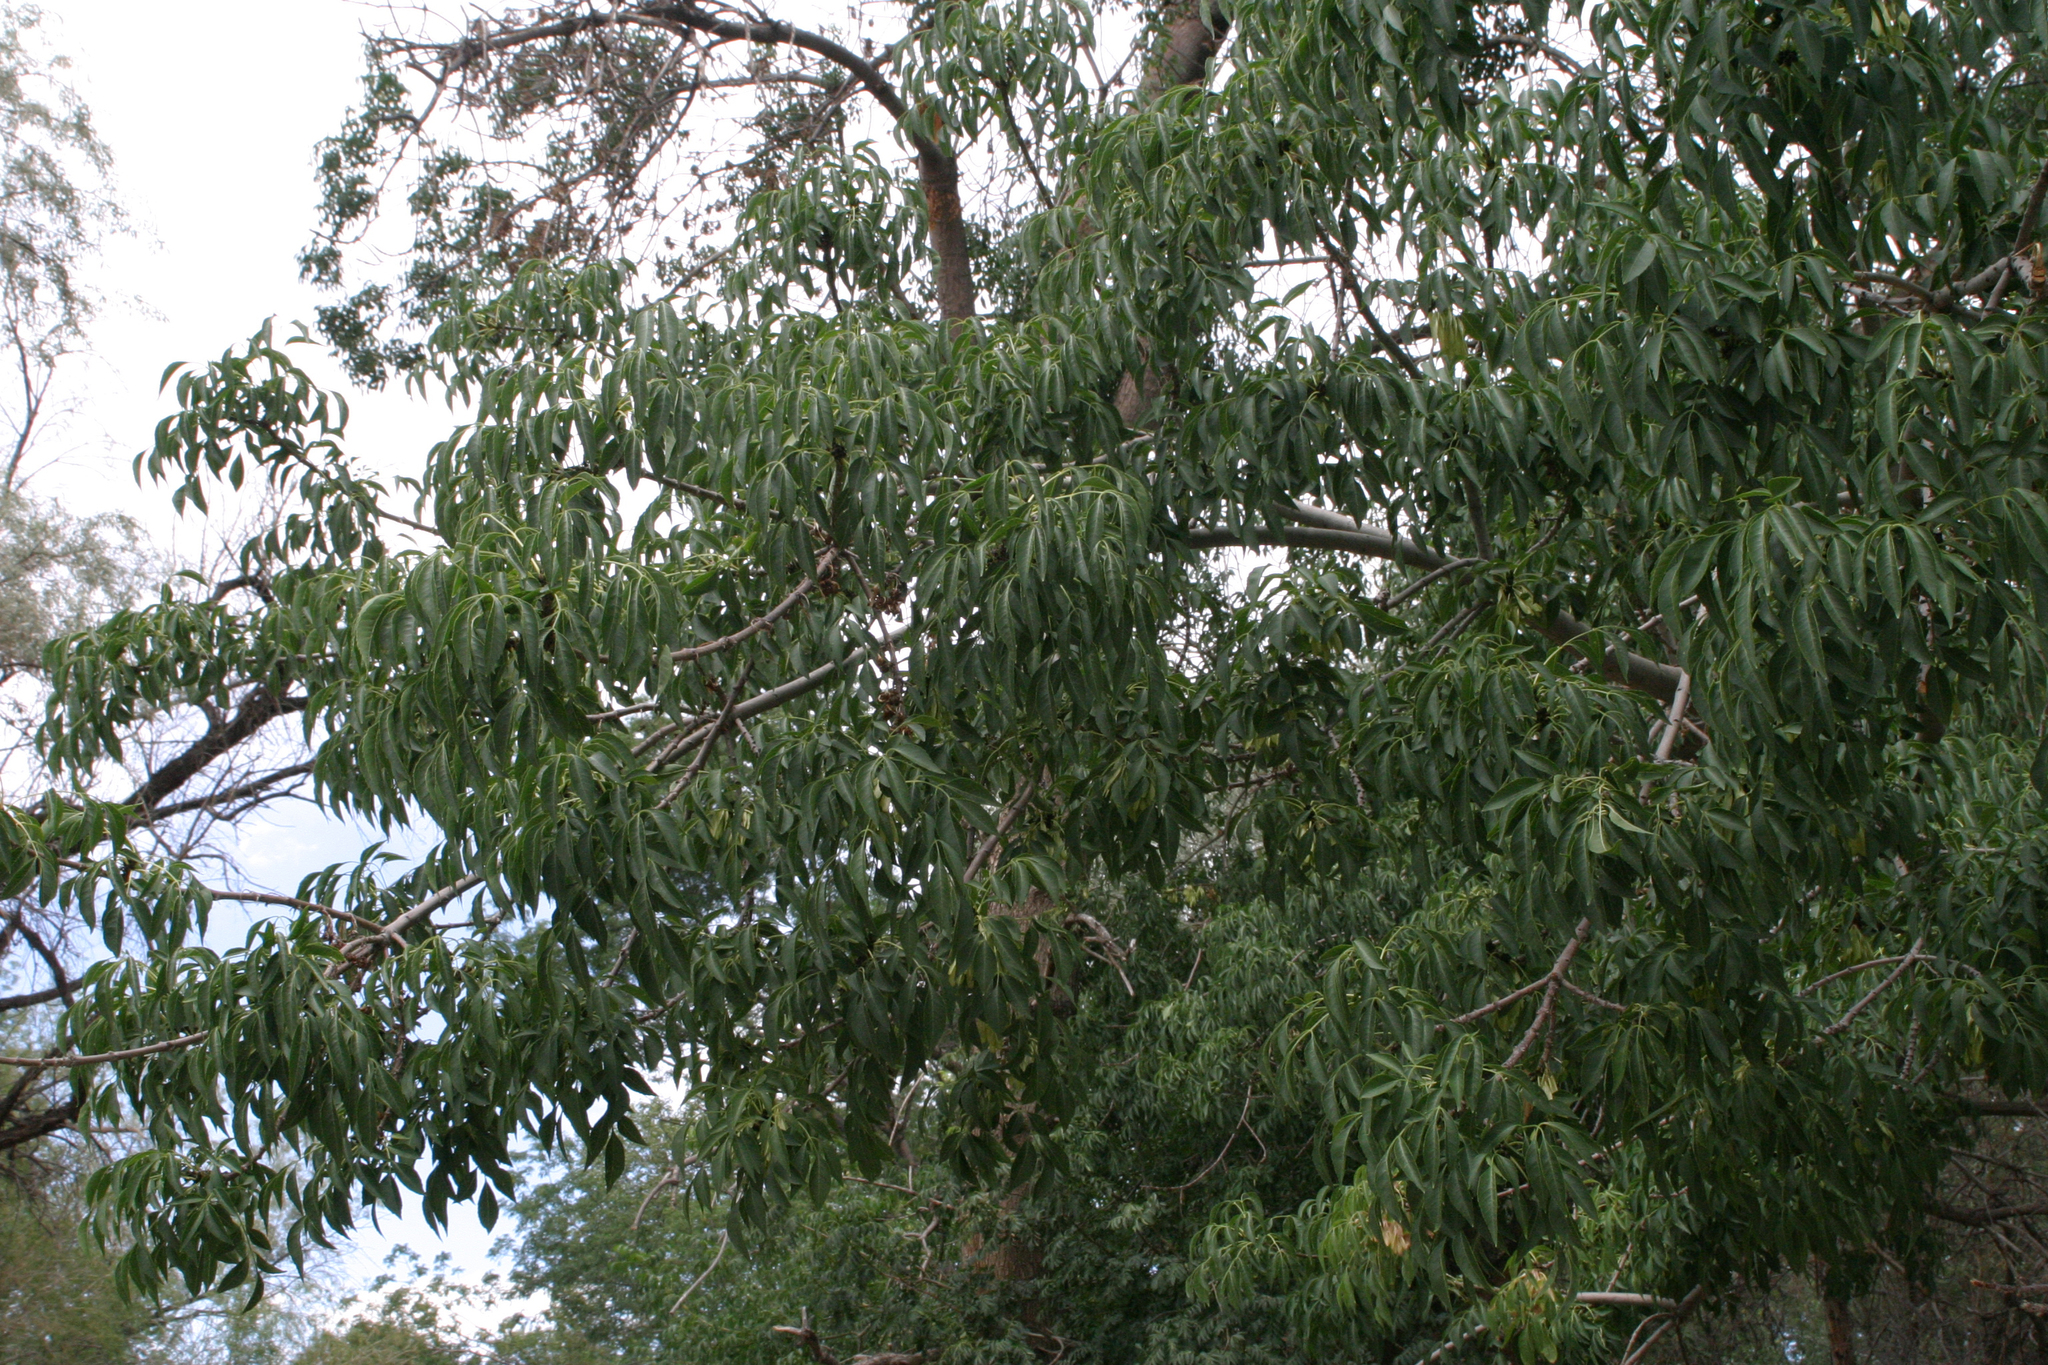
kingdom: Plantae
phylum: Tracheophyta
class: Magnoliopsida
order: Lamiales
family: Oleaceae
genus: Fraxinus
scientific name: Fraxinus sogdiana
